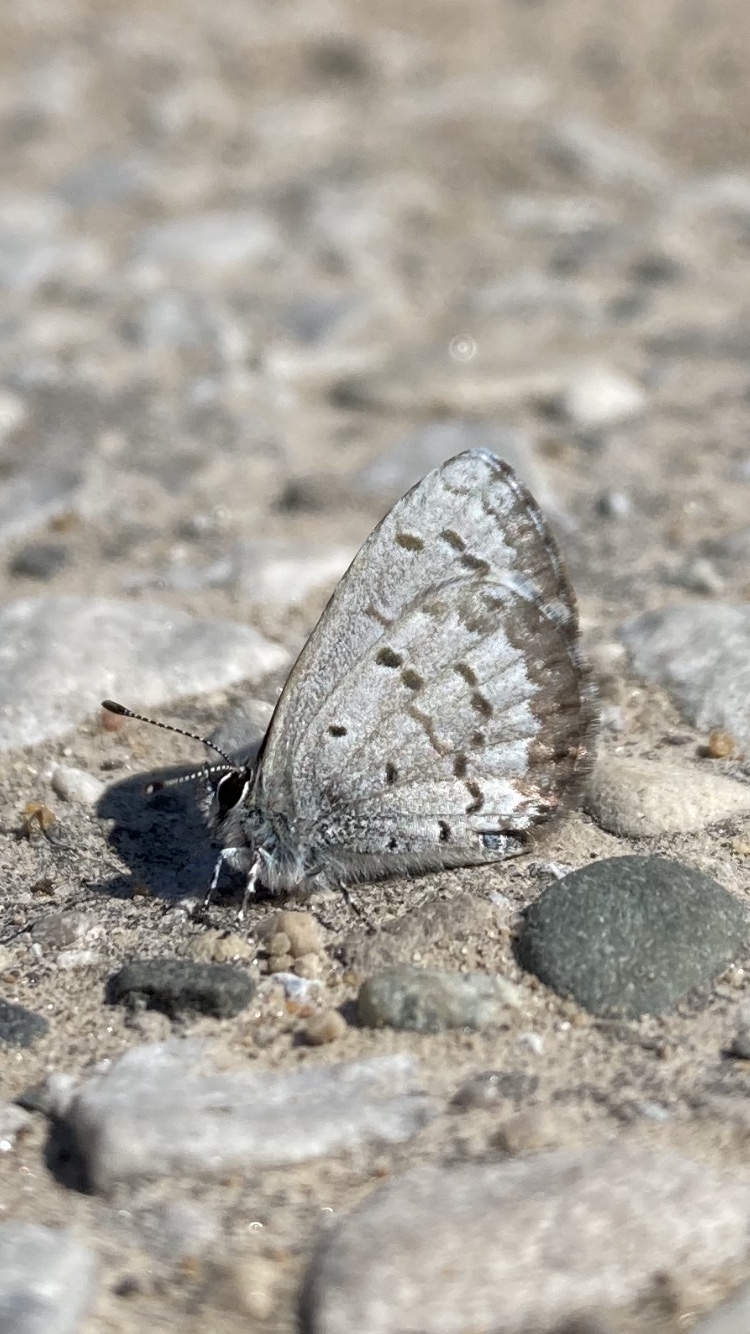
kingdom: Animalia
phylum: Arthropoda
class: Insecta
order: Lepidoptera
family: Lycaenidae
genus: Celastrina
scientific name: Celastrina lucia
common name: Lucia azure
